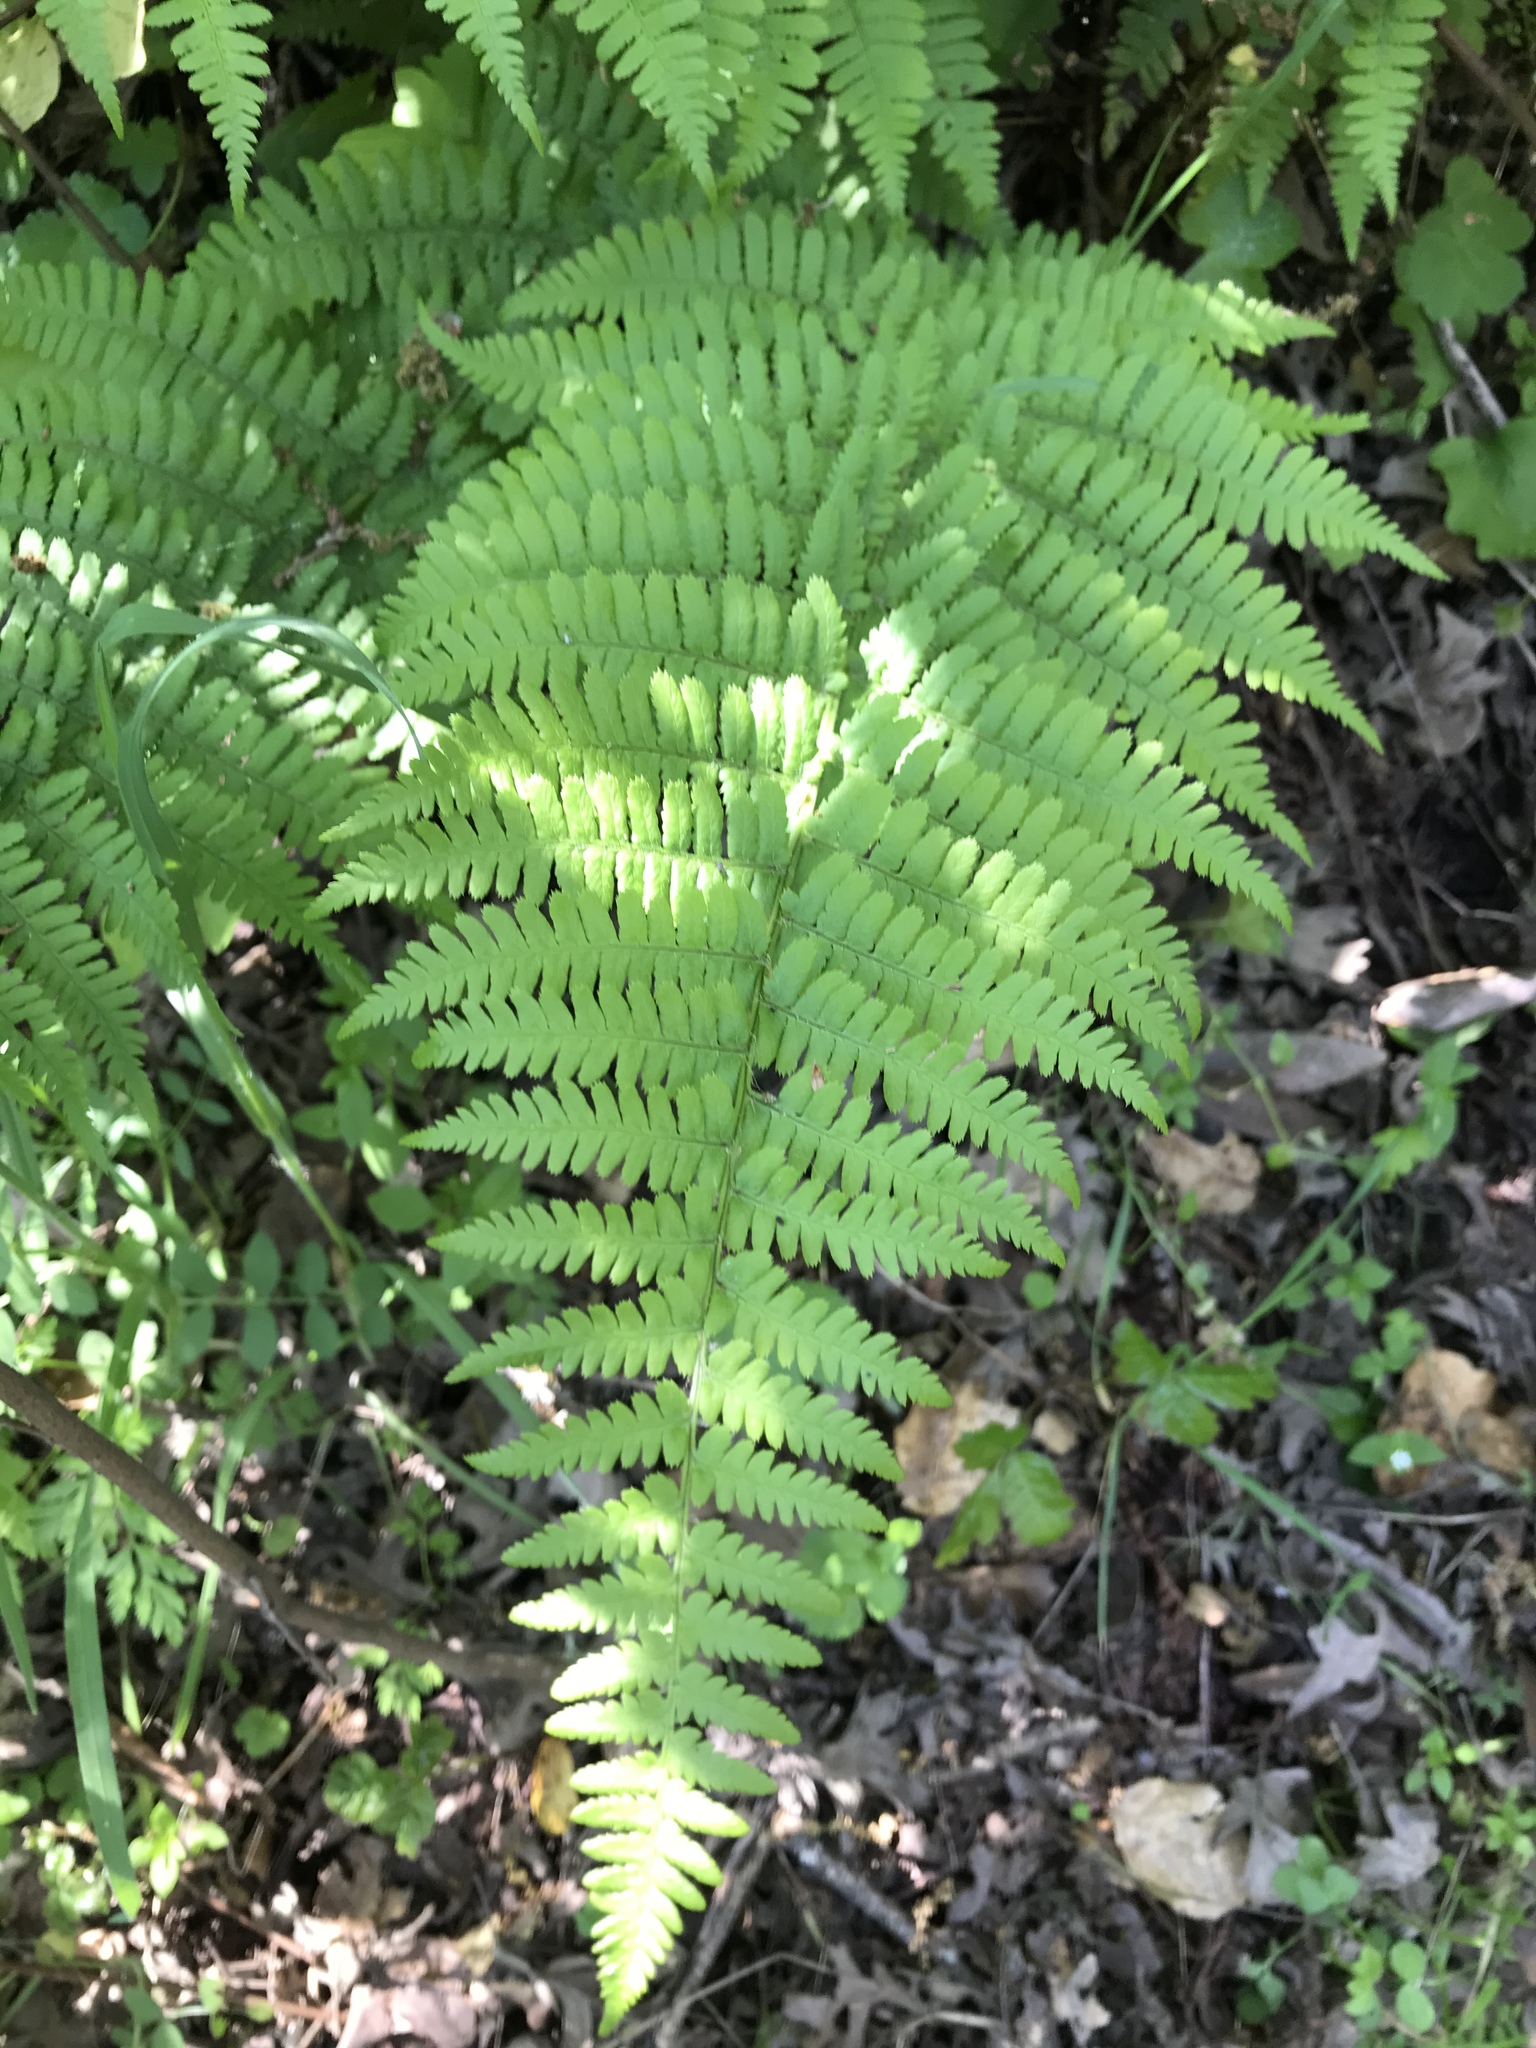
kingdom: Plantae
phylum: Tracheophyta
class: Polypodiopsida
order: Polypodiales
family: Dryopteridaceae
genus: Dryopteris
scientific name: Dryopteris arguta
